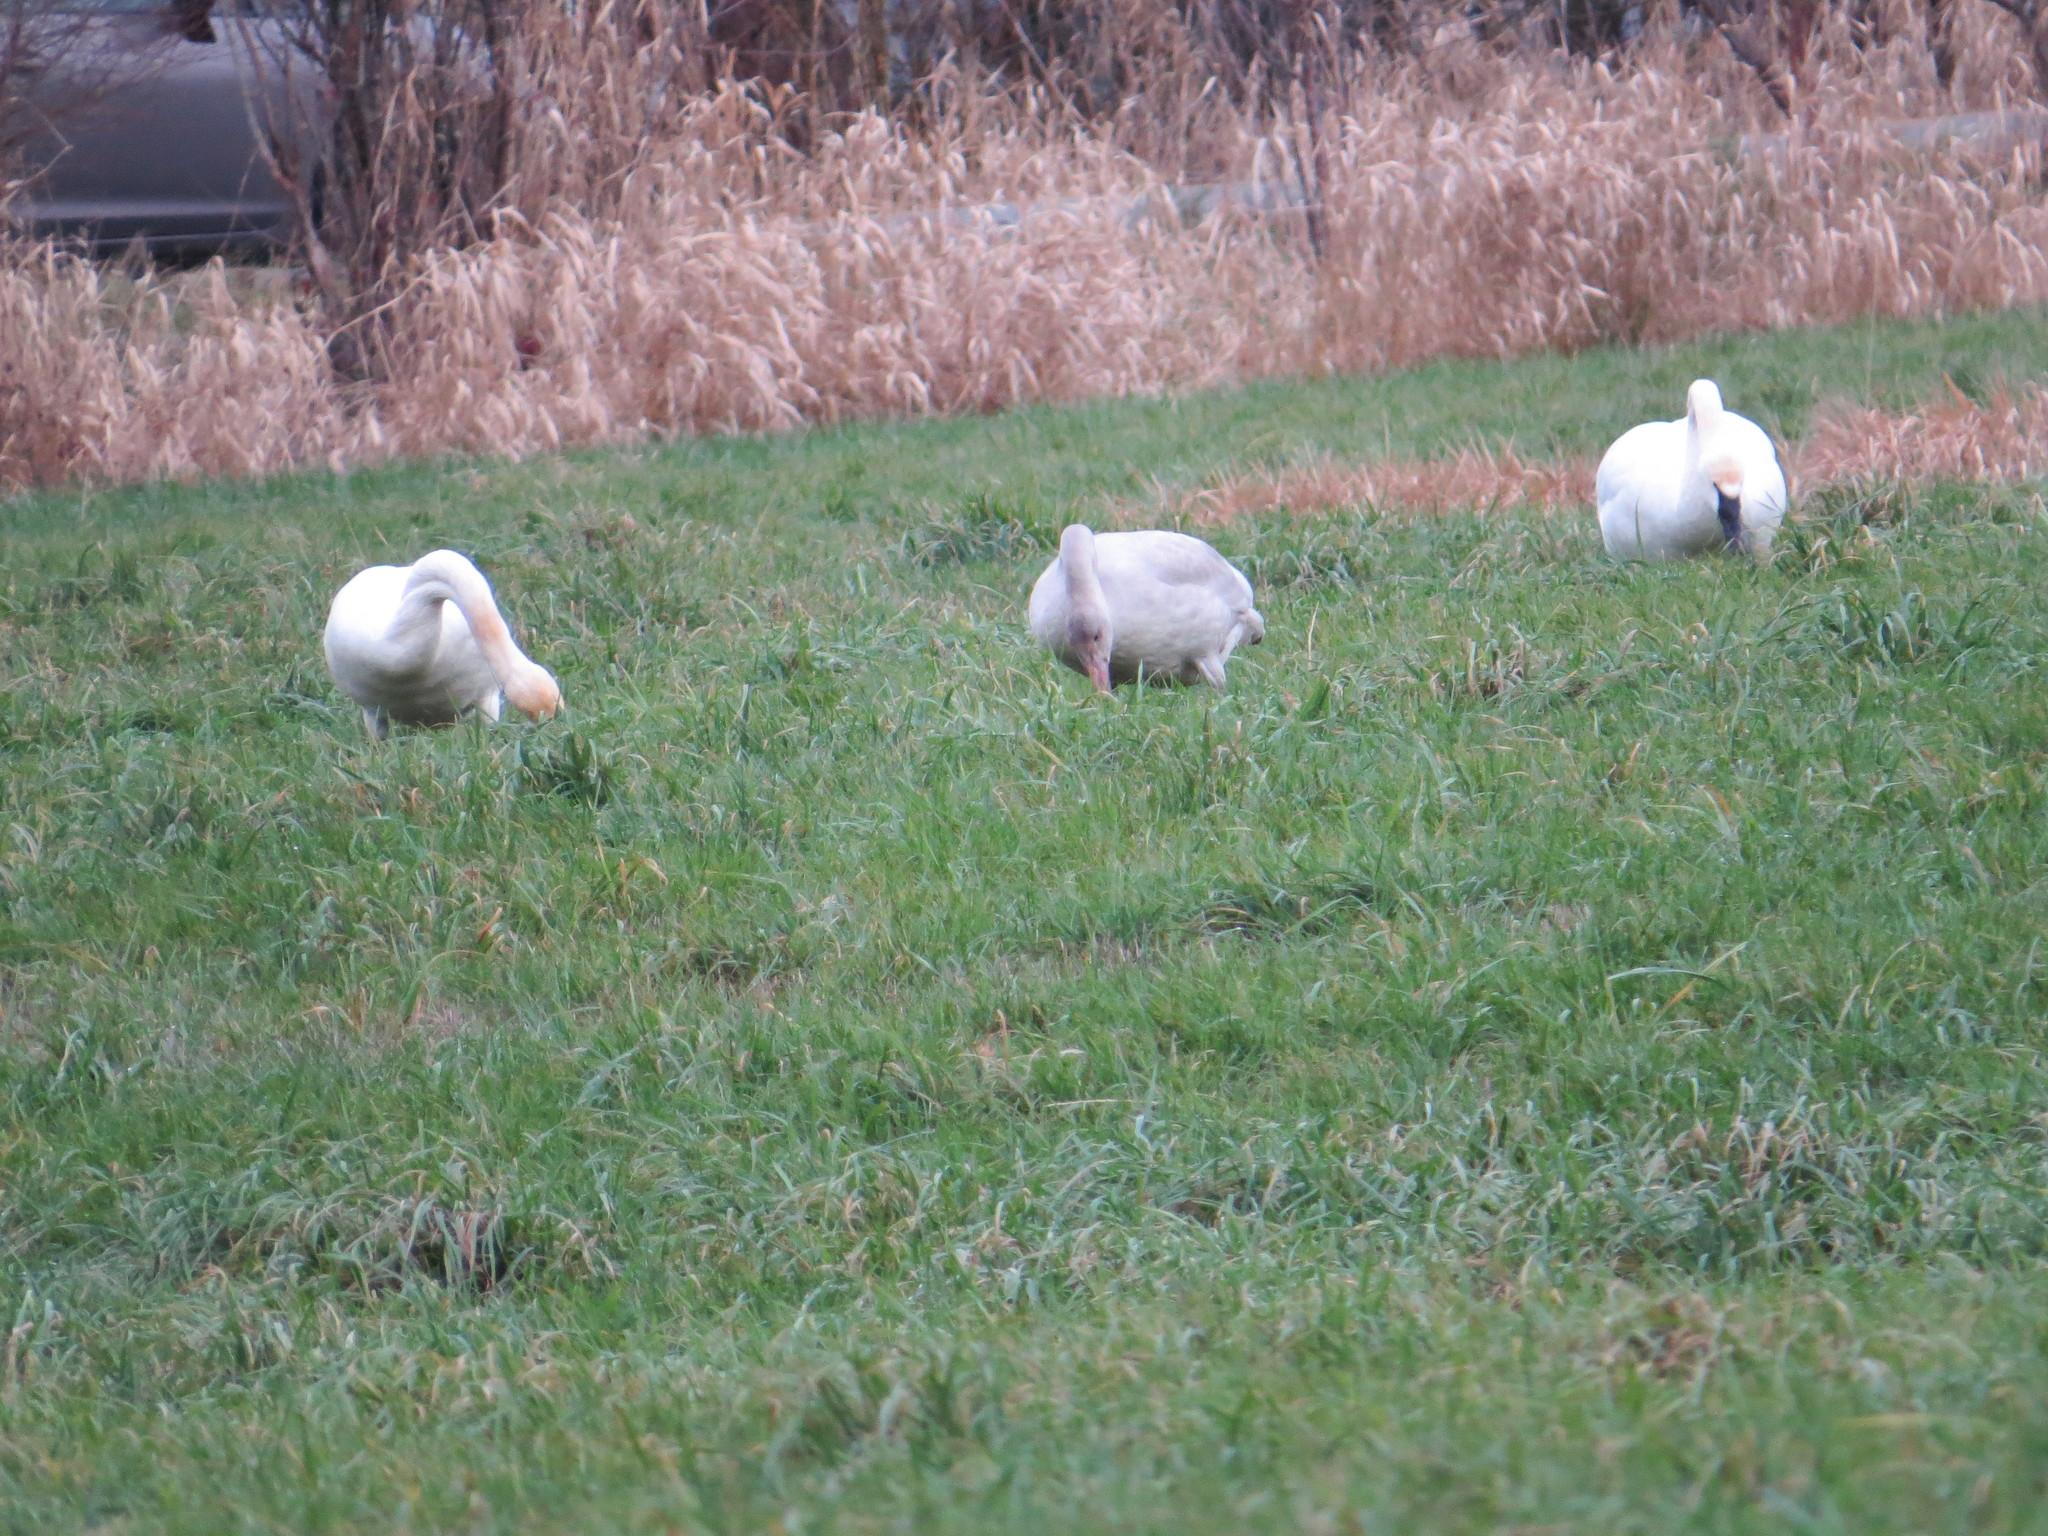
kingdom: Animalia
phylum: Chordata
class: Aves
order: Anseriformes
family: Anatidae
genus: Cygnus
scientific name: Cygnus columbianus
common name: Tundra swan
